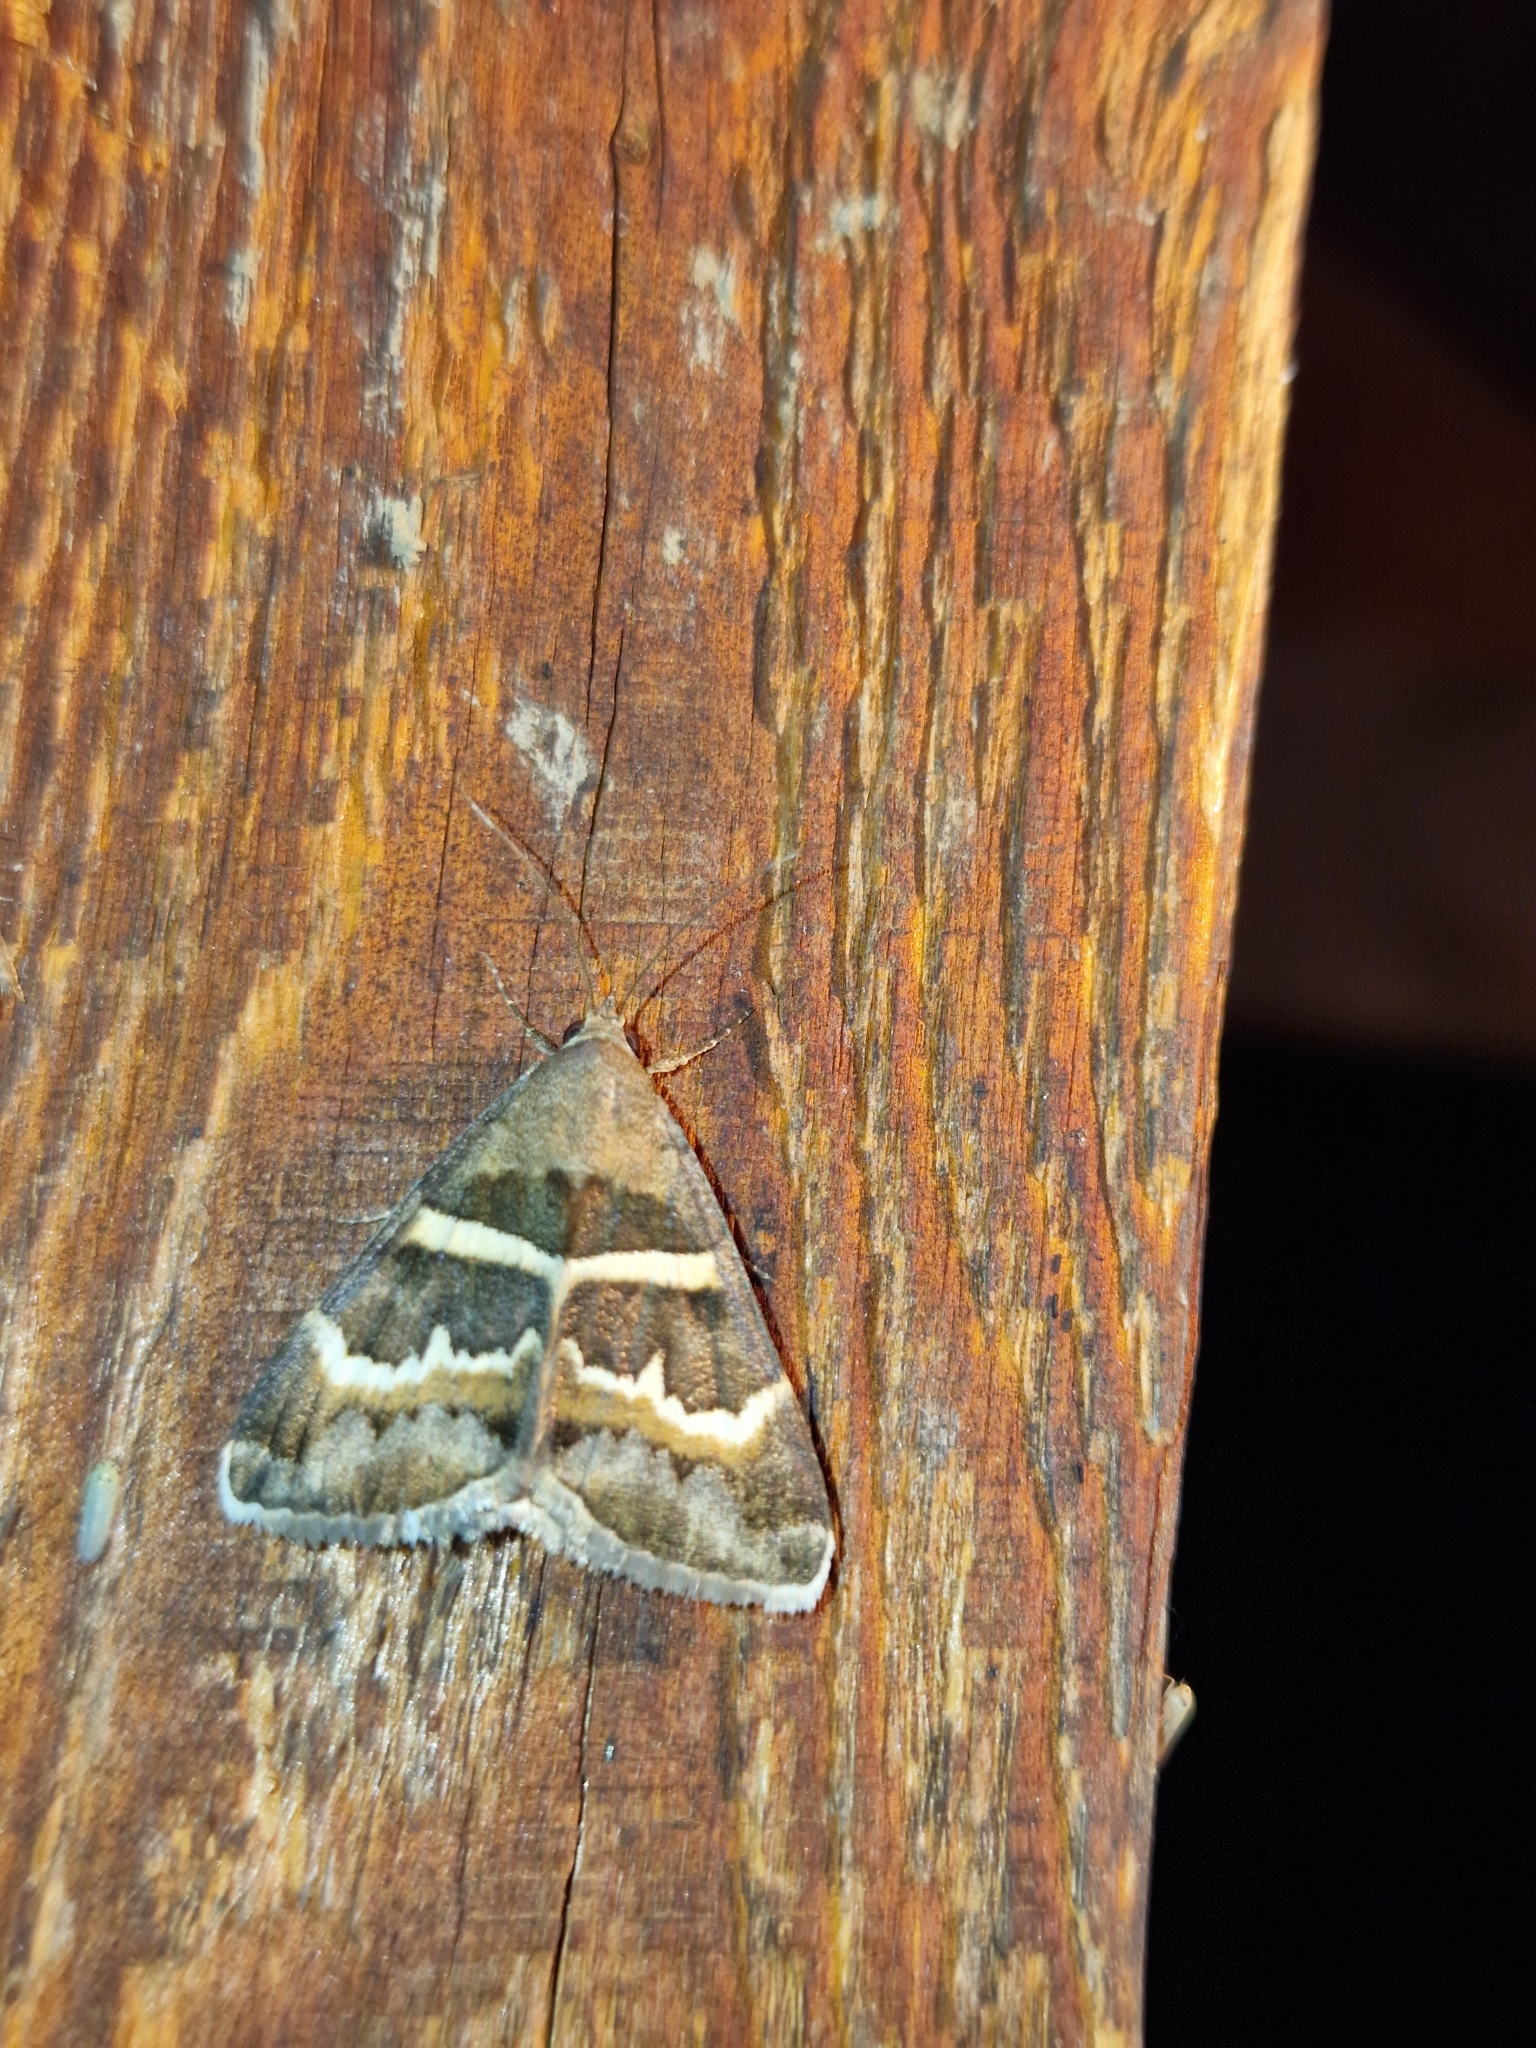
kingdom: Animalia
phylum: Arthropoda
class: Insecta
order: Lepidoptera
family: Erebidae
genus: Grammodes
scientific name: Grammodes stolida
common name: Geometrician
